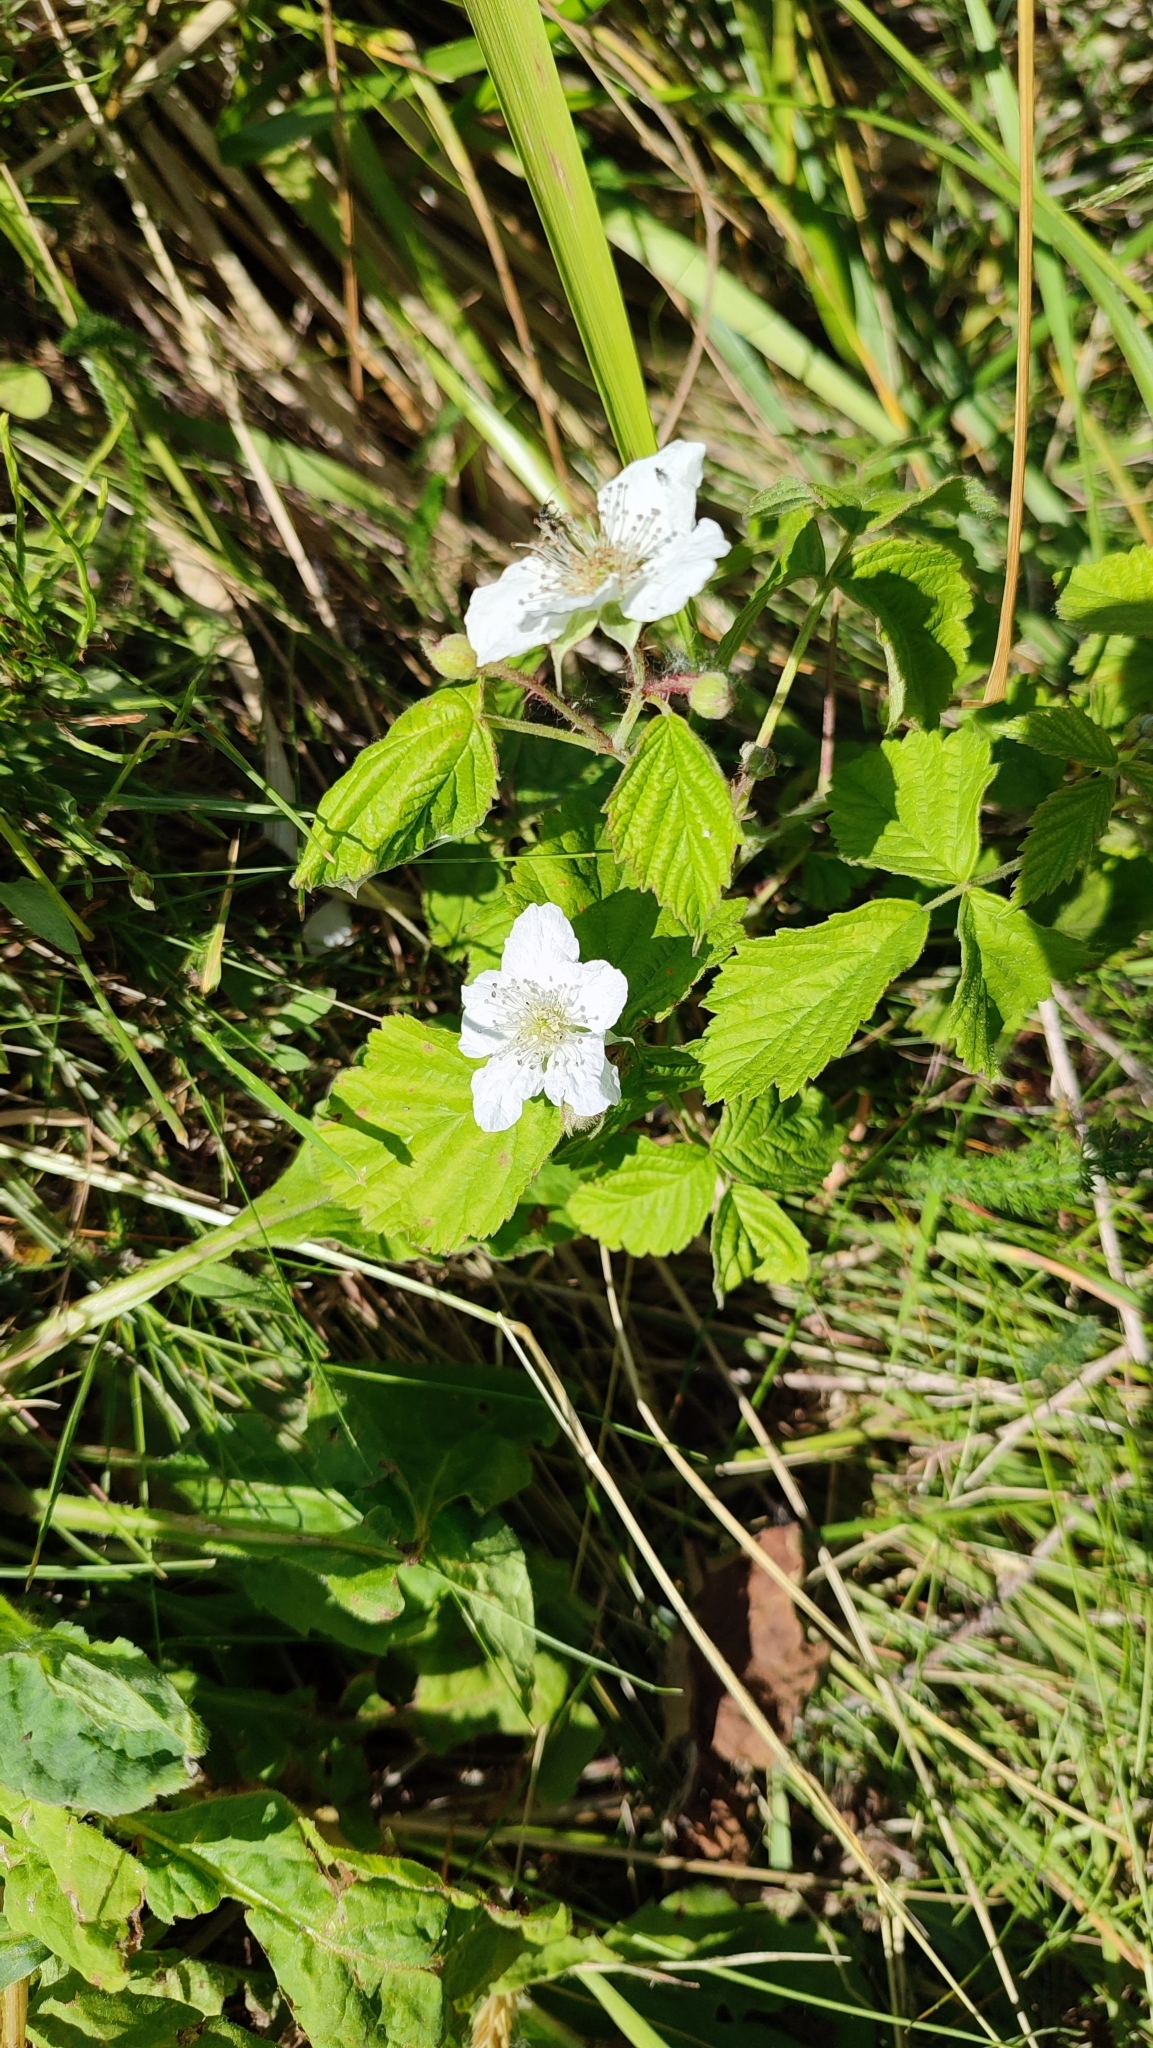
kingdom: Plantae
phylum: Tracheophyta
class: Magnoliopsida
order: Rosales
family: Rosaceae
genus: Rubus
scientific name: Rubus caesius
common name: Dewberry
